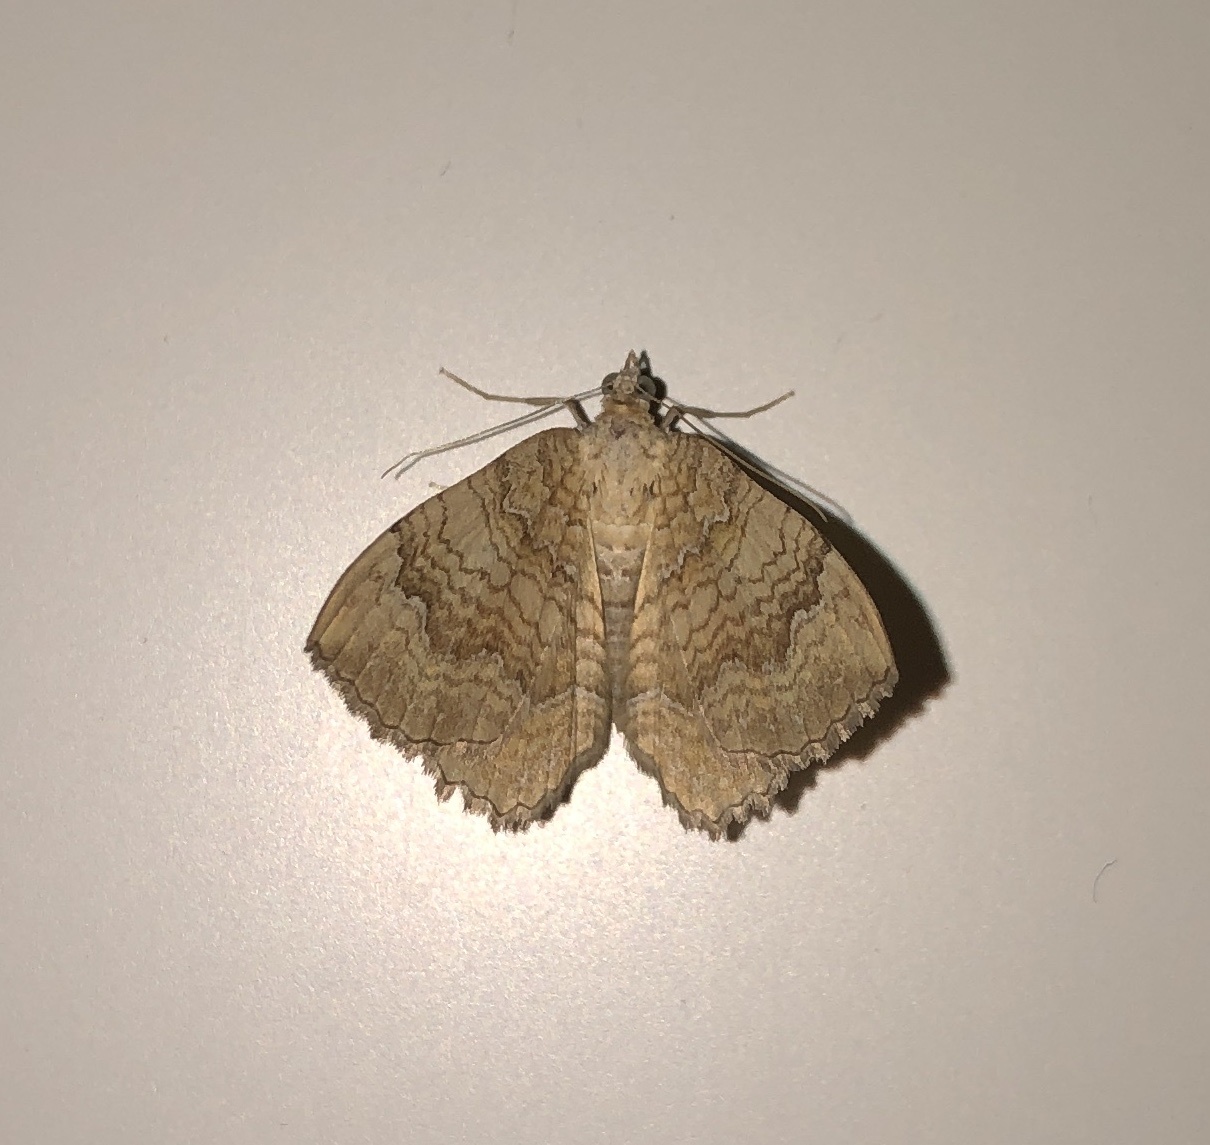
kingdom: Animalia
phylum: Arthropoda
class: Insecta
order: Lepidoptera
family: Geometridae
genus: Camptogramma
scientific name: Camptogramma bilineata
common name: Yellow shell
